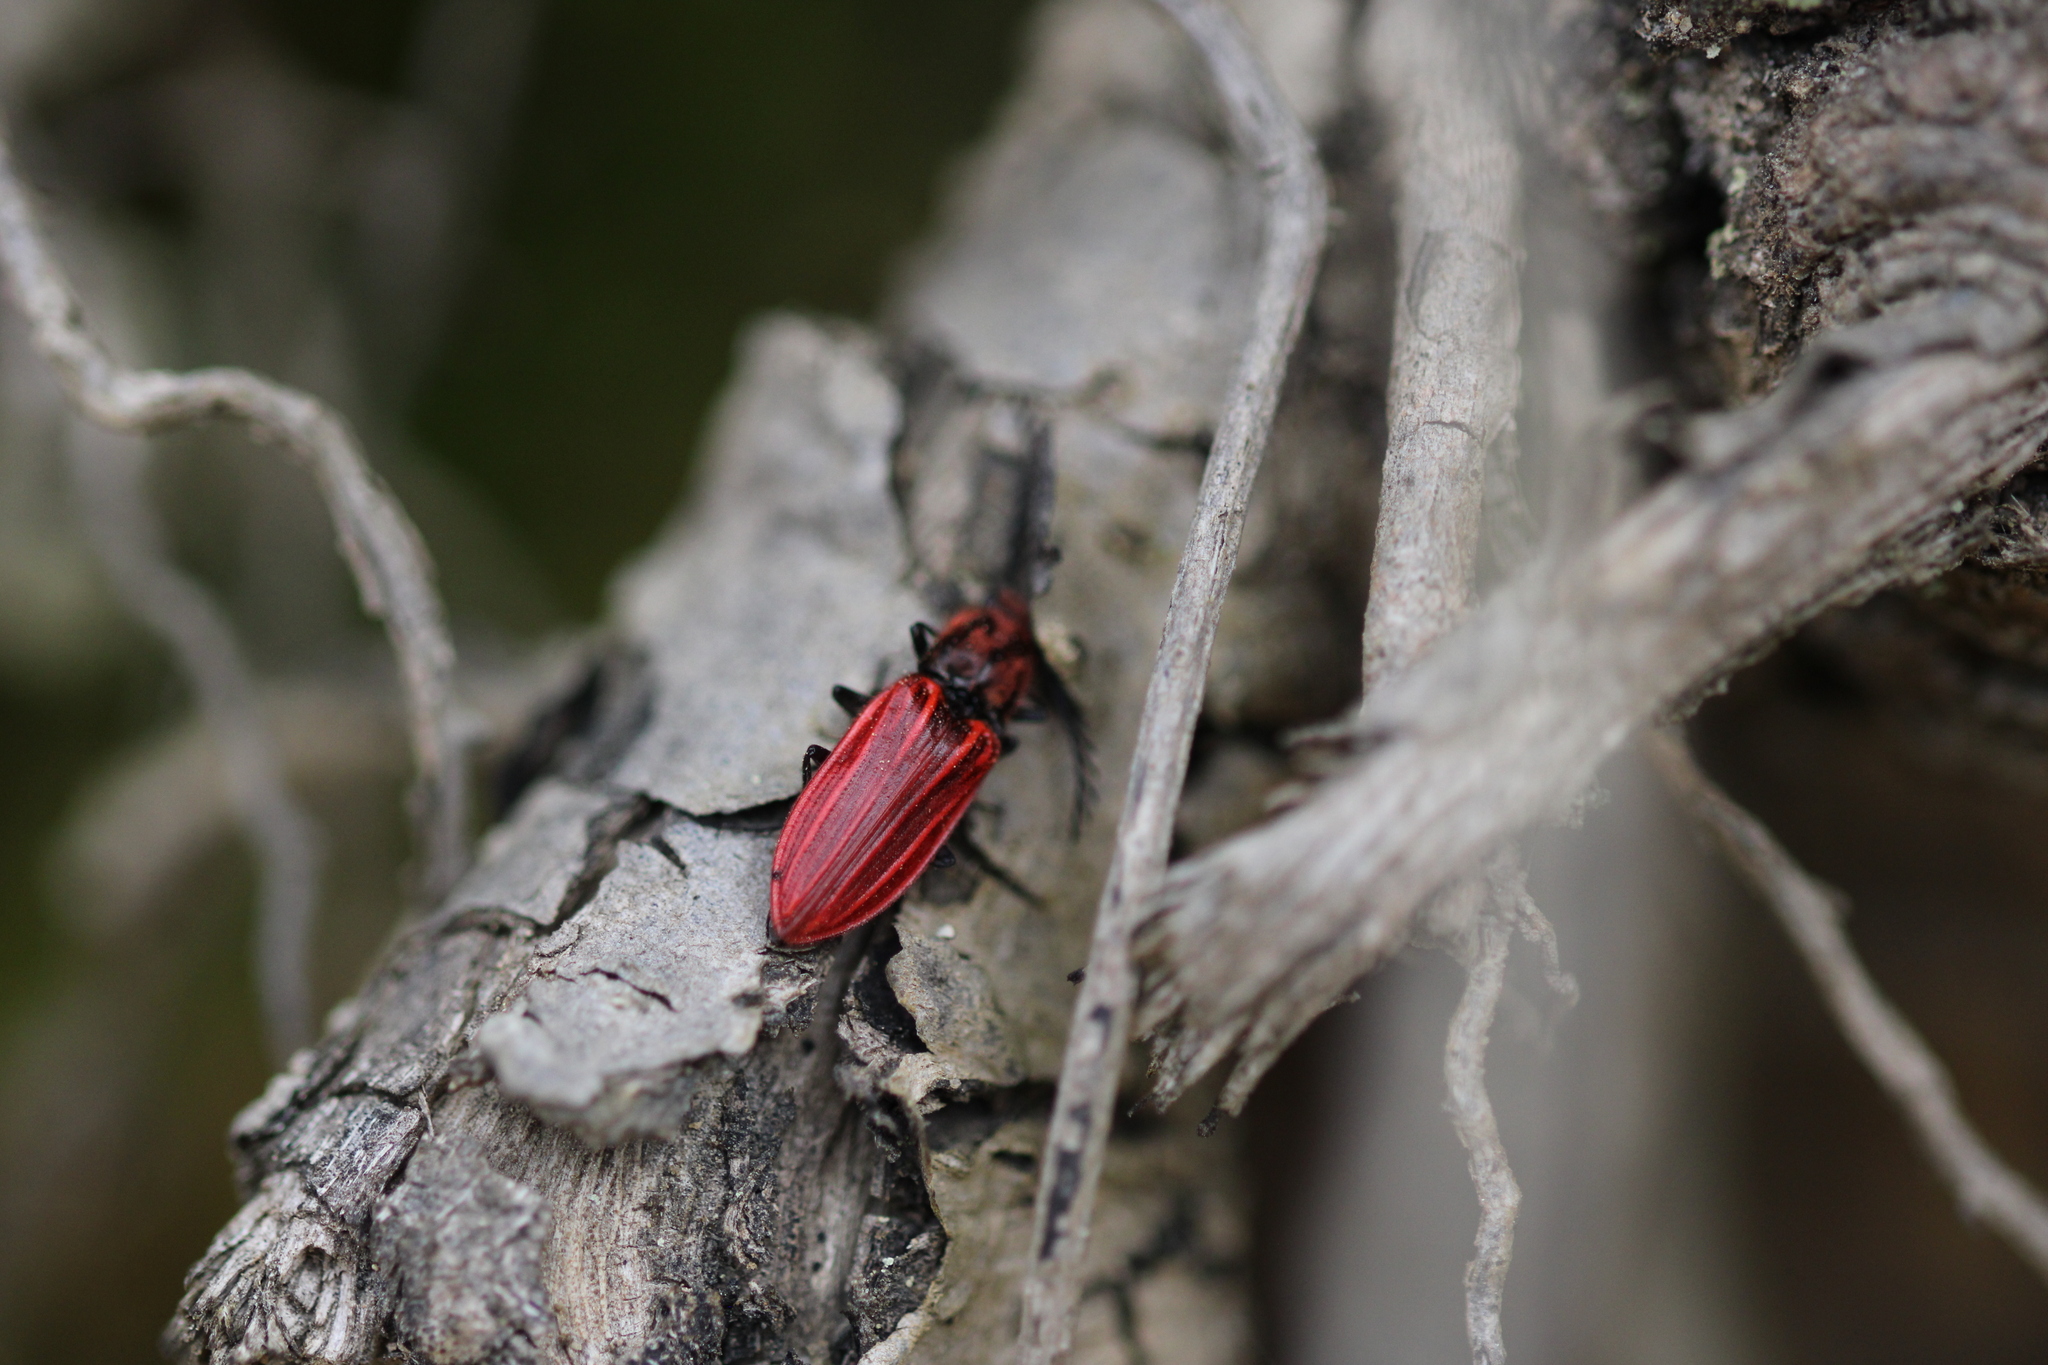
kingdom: Animalia
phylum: Arthropoda
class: Insecta
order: Coleoptera
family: Elateridae
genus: Anostirus
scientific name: Anostirus purpureus
